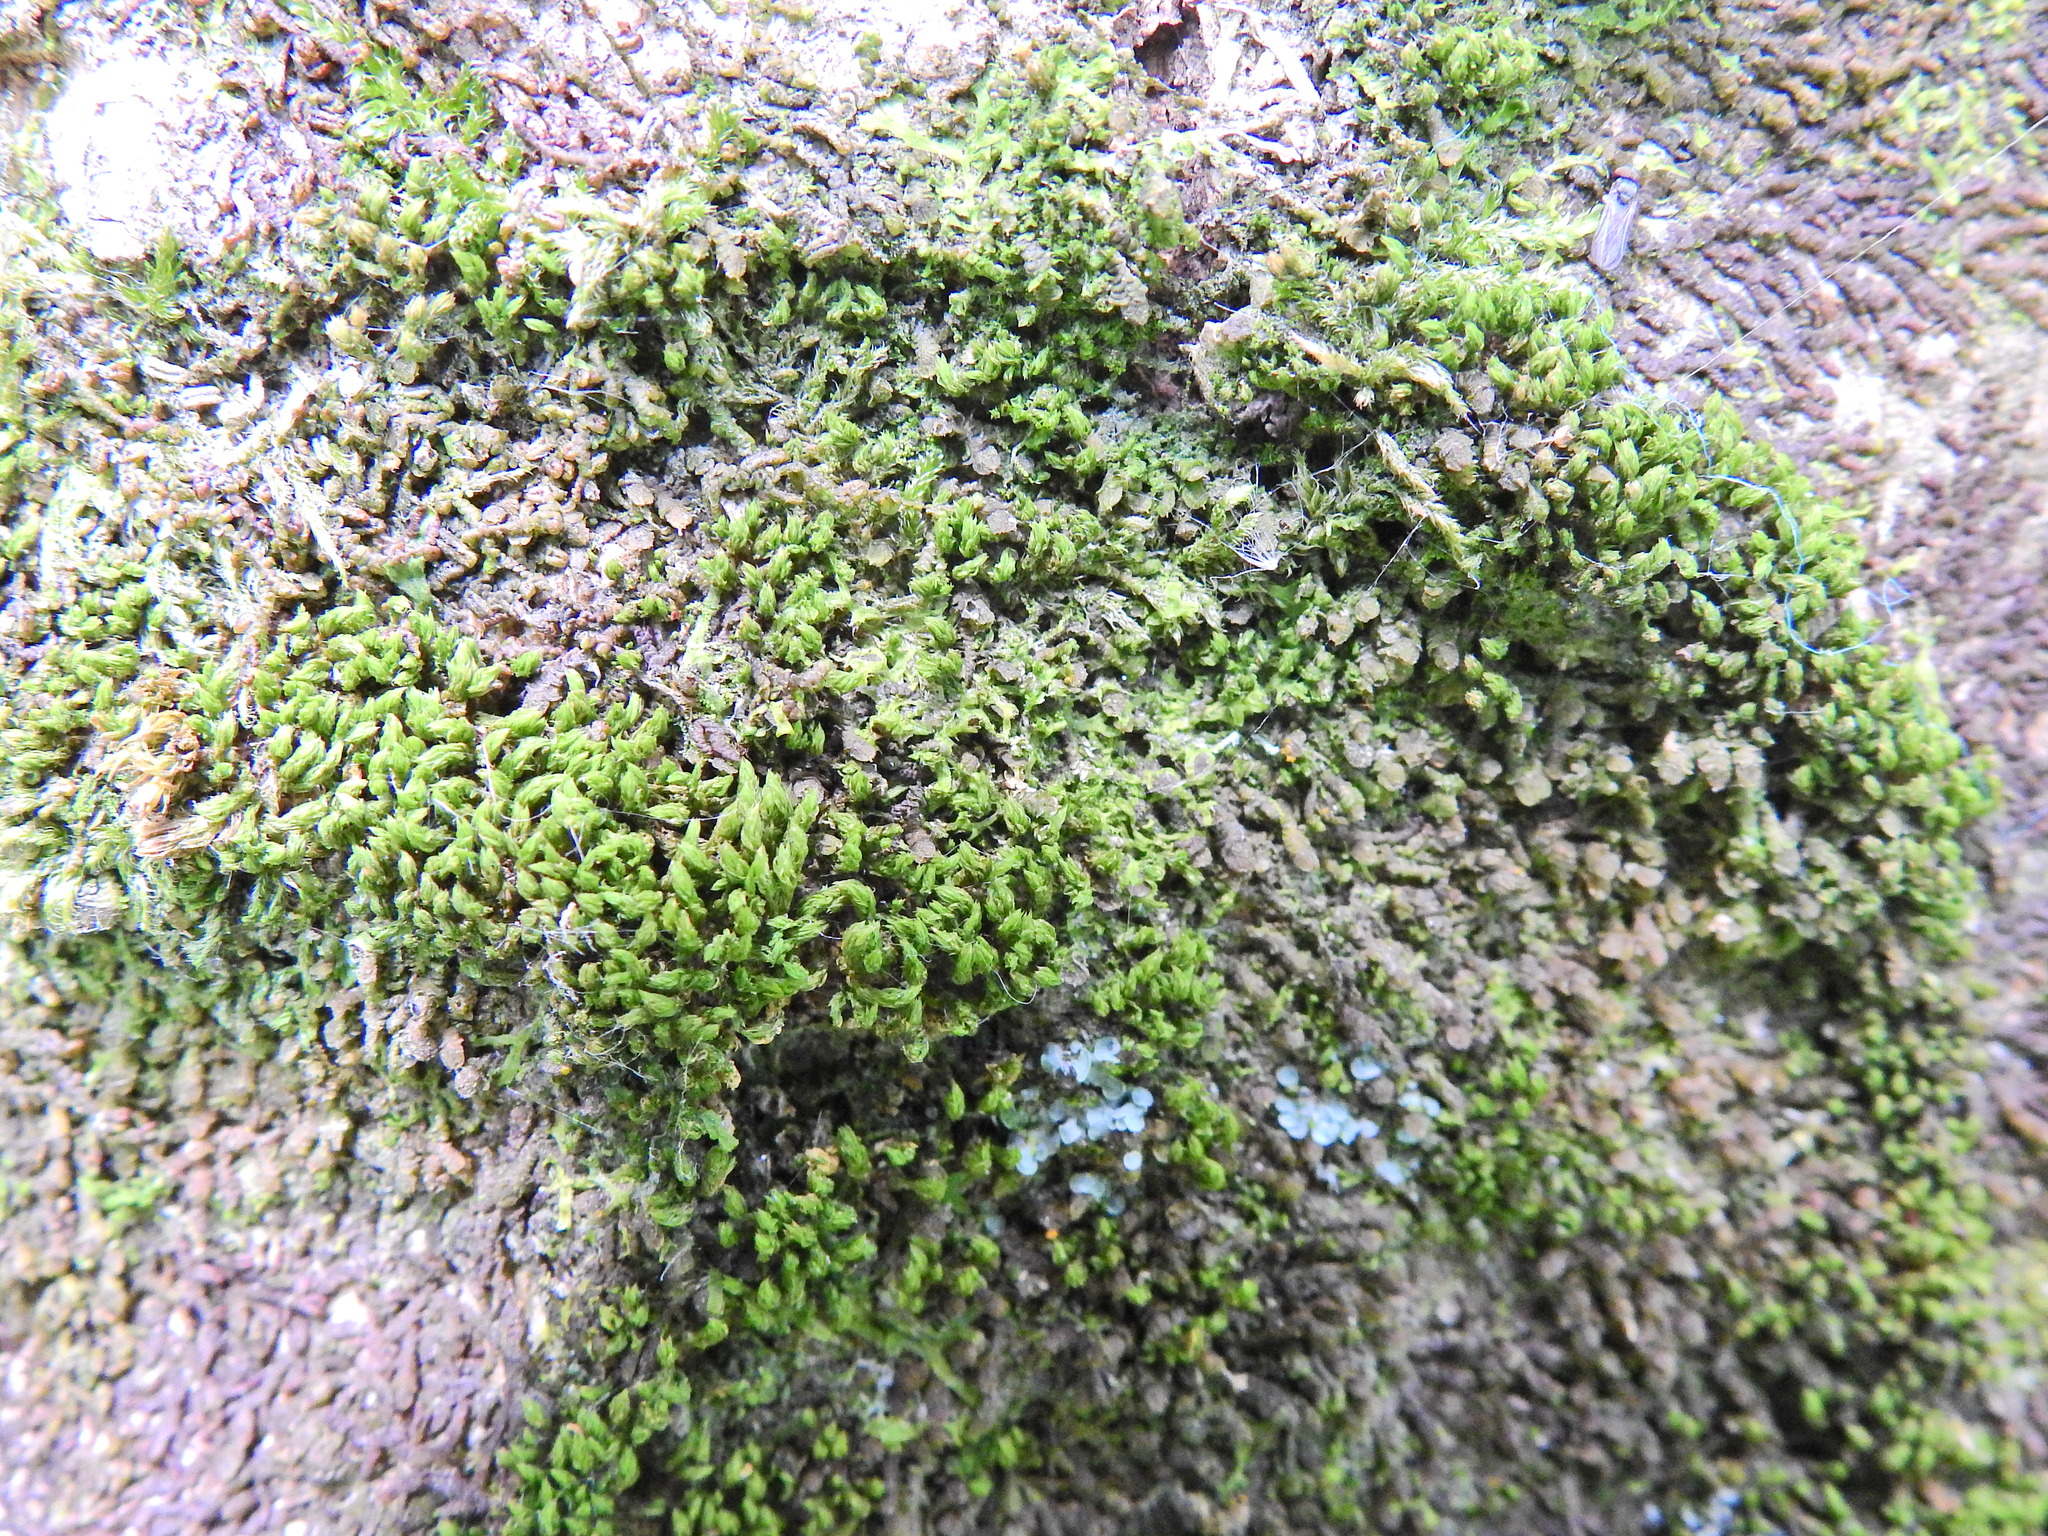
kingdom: Plantae
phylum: Marchantiophyta
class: Jungermanniopsida
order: Porellales
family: Frullaniaceae
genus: Frullania
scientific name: Frullania dilatata
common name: Dilated scalewort
